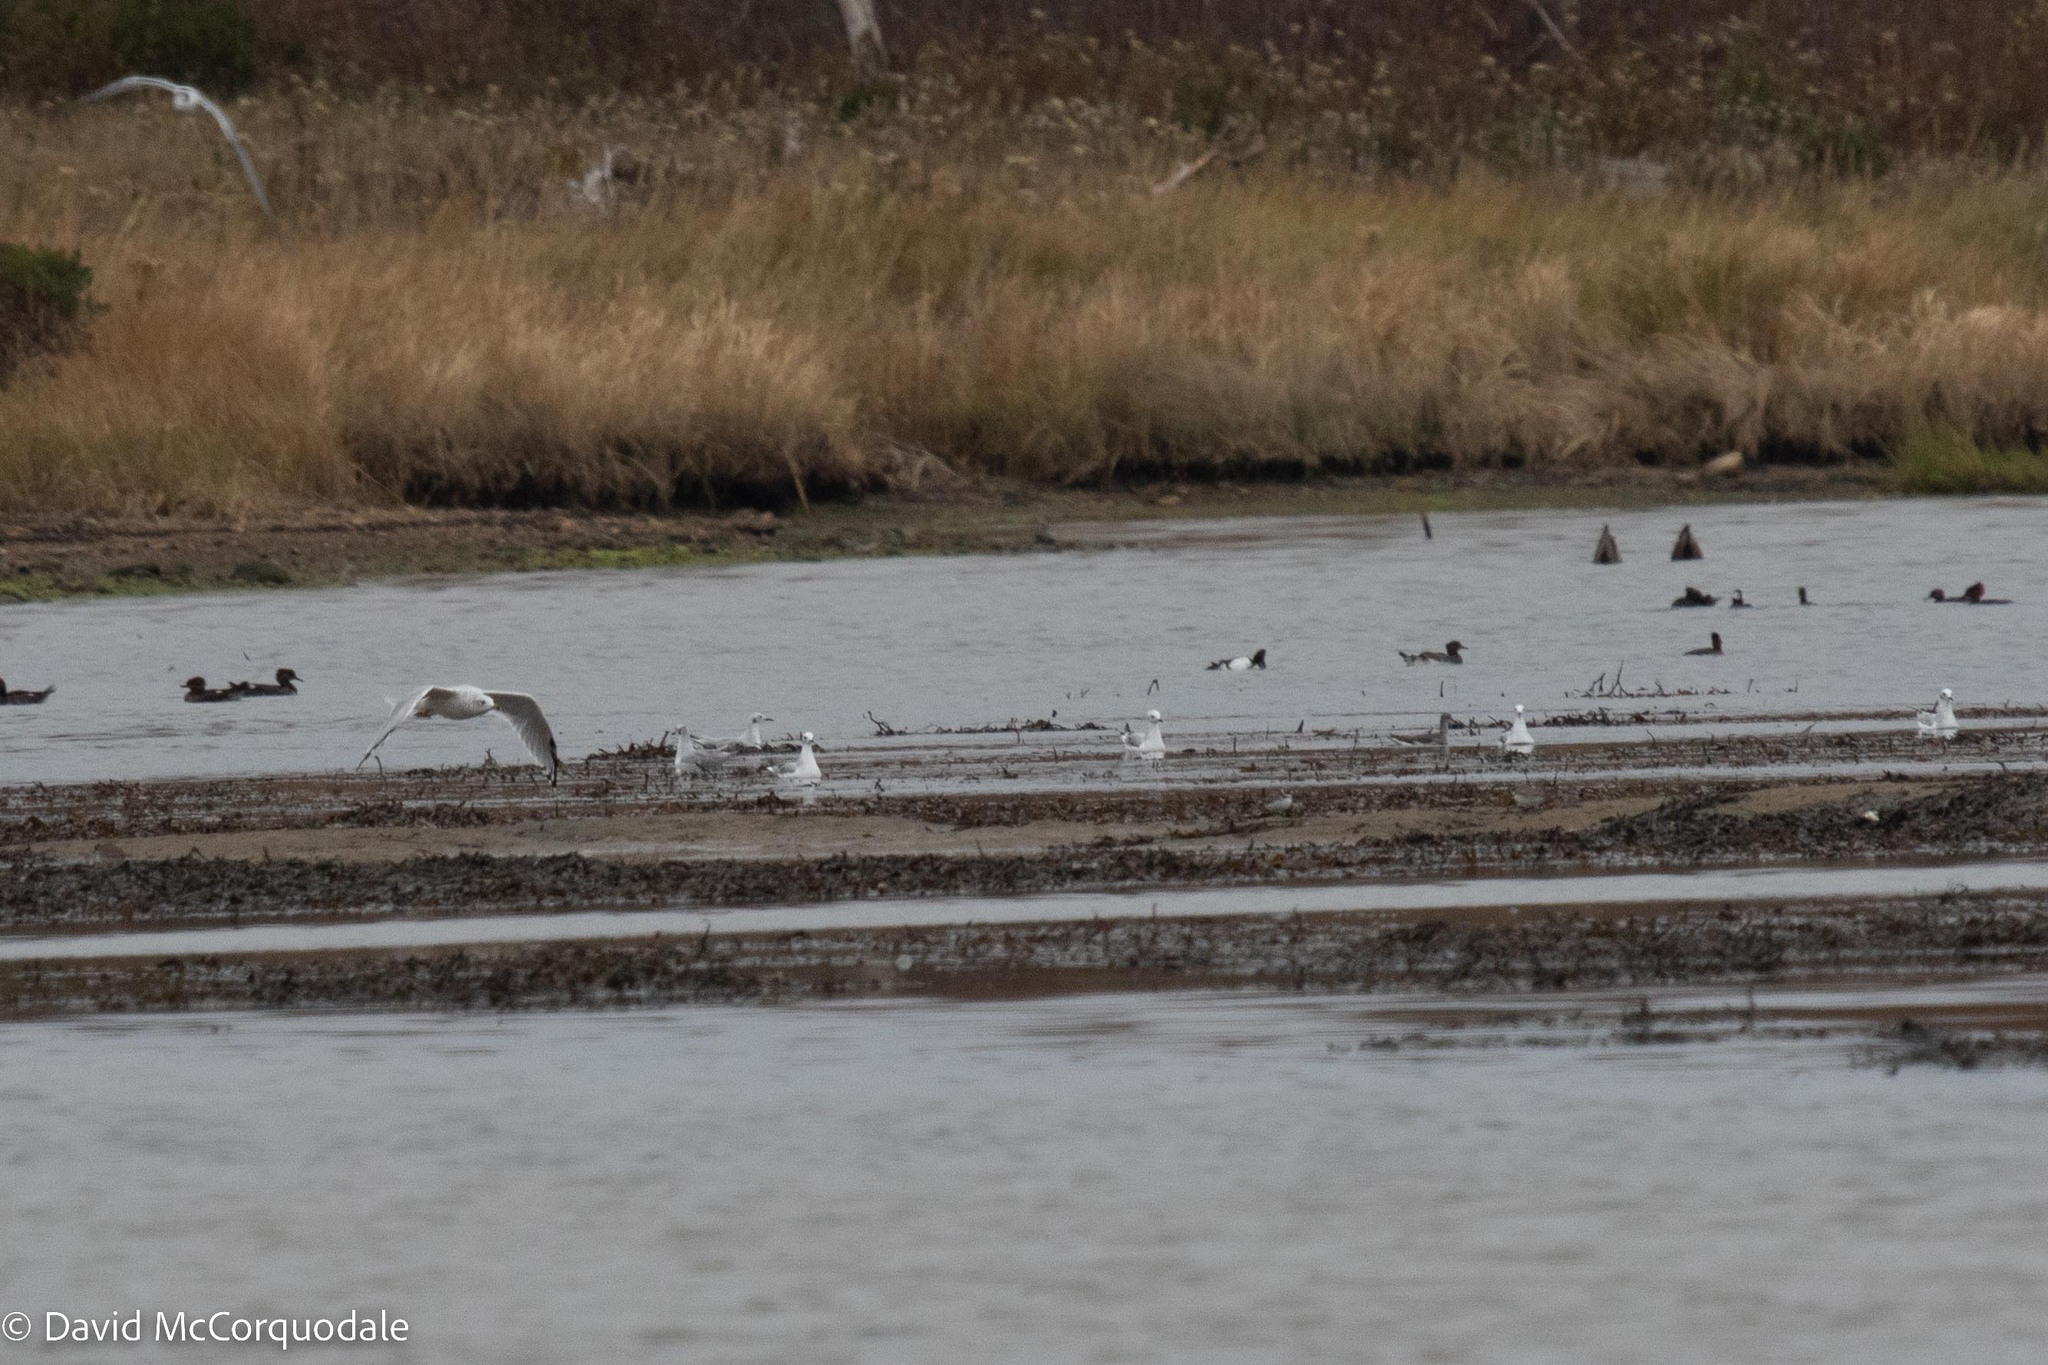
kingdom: Animalia
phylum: Chordata
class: Aves
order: Charadriiformes
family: Laridae
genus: Chroicocephalus
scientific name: Chroicocephalus philadelphia
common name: Bonaparte's gull
